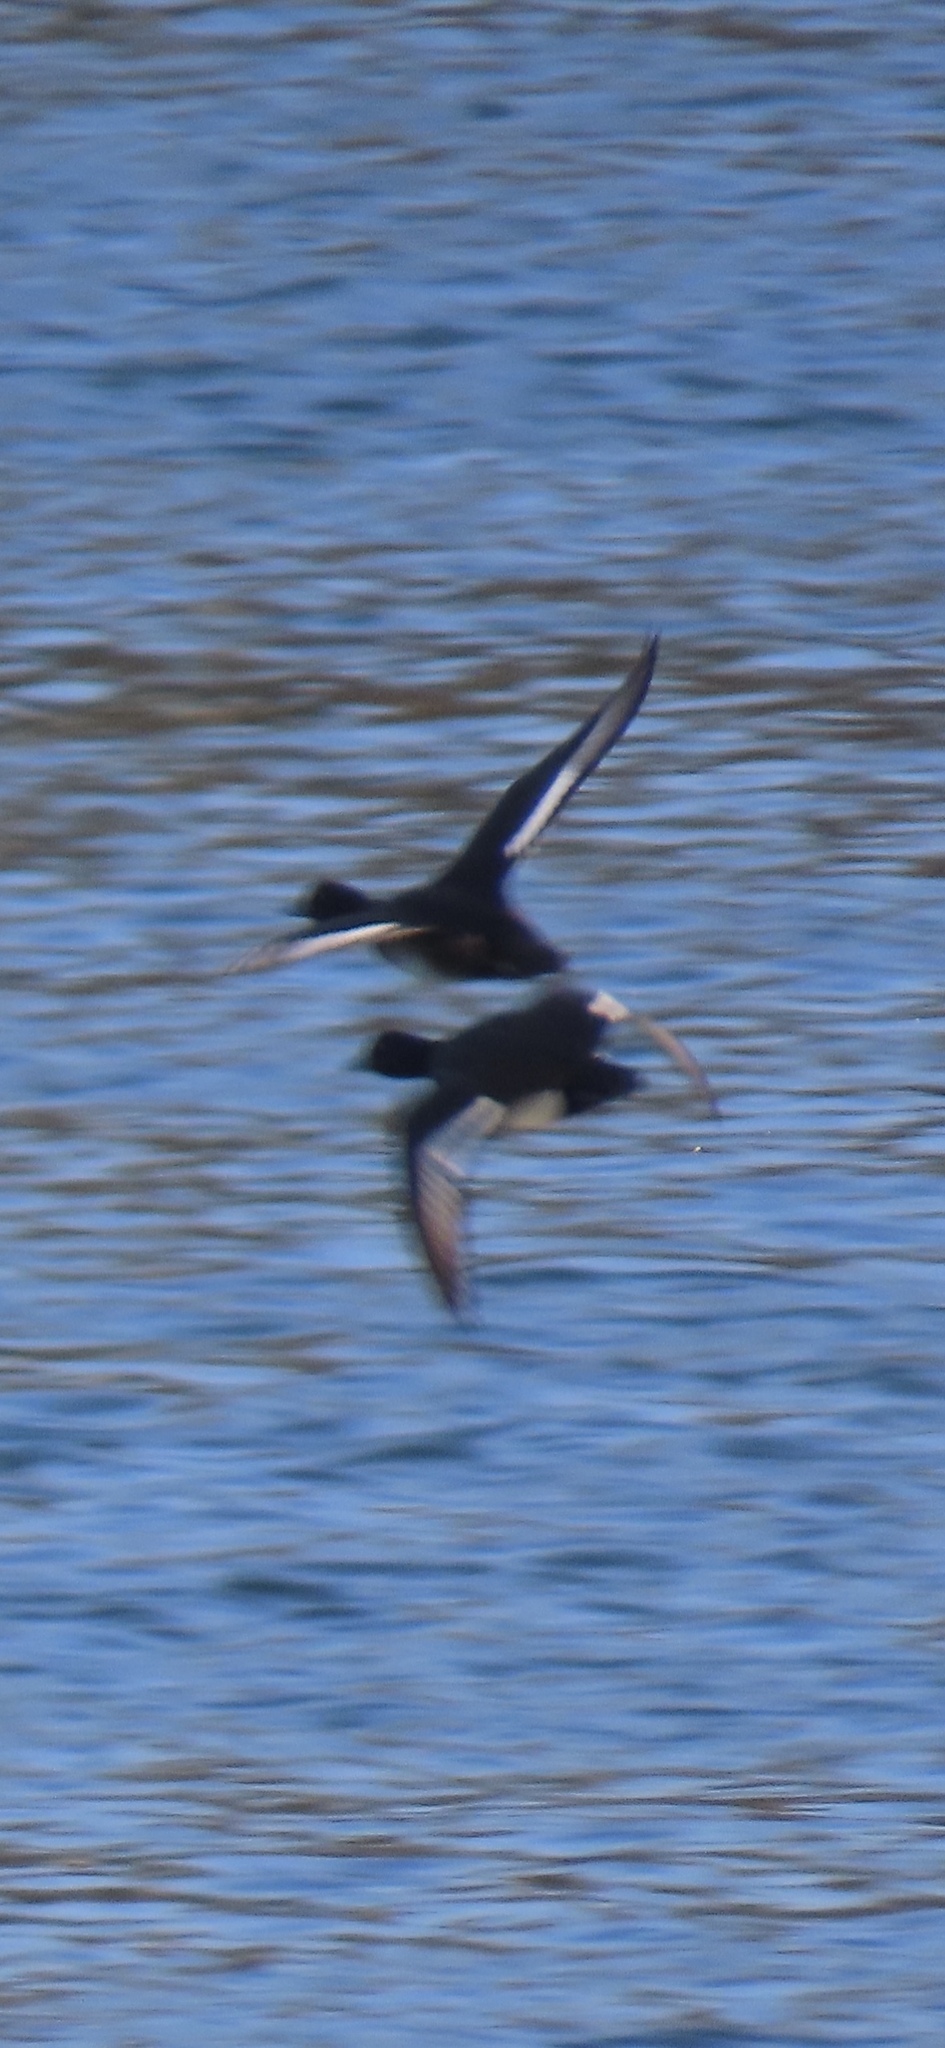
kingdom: Animalia
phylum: Chordata
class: Aves
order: Anseriformes
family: Anatidae
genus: Aythya
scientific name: Aythya fuligula
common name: Tufted duck
